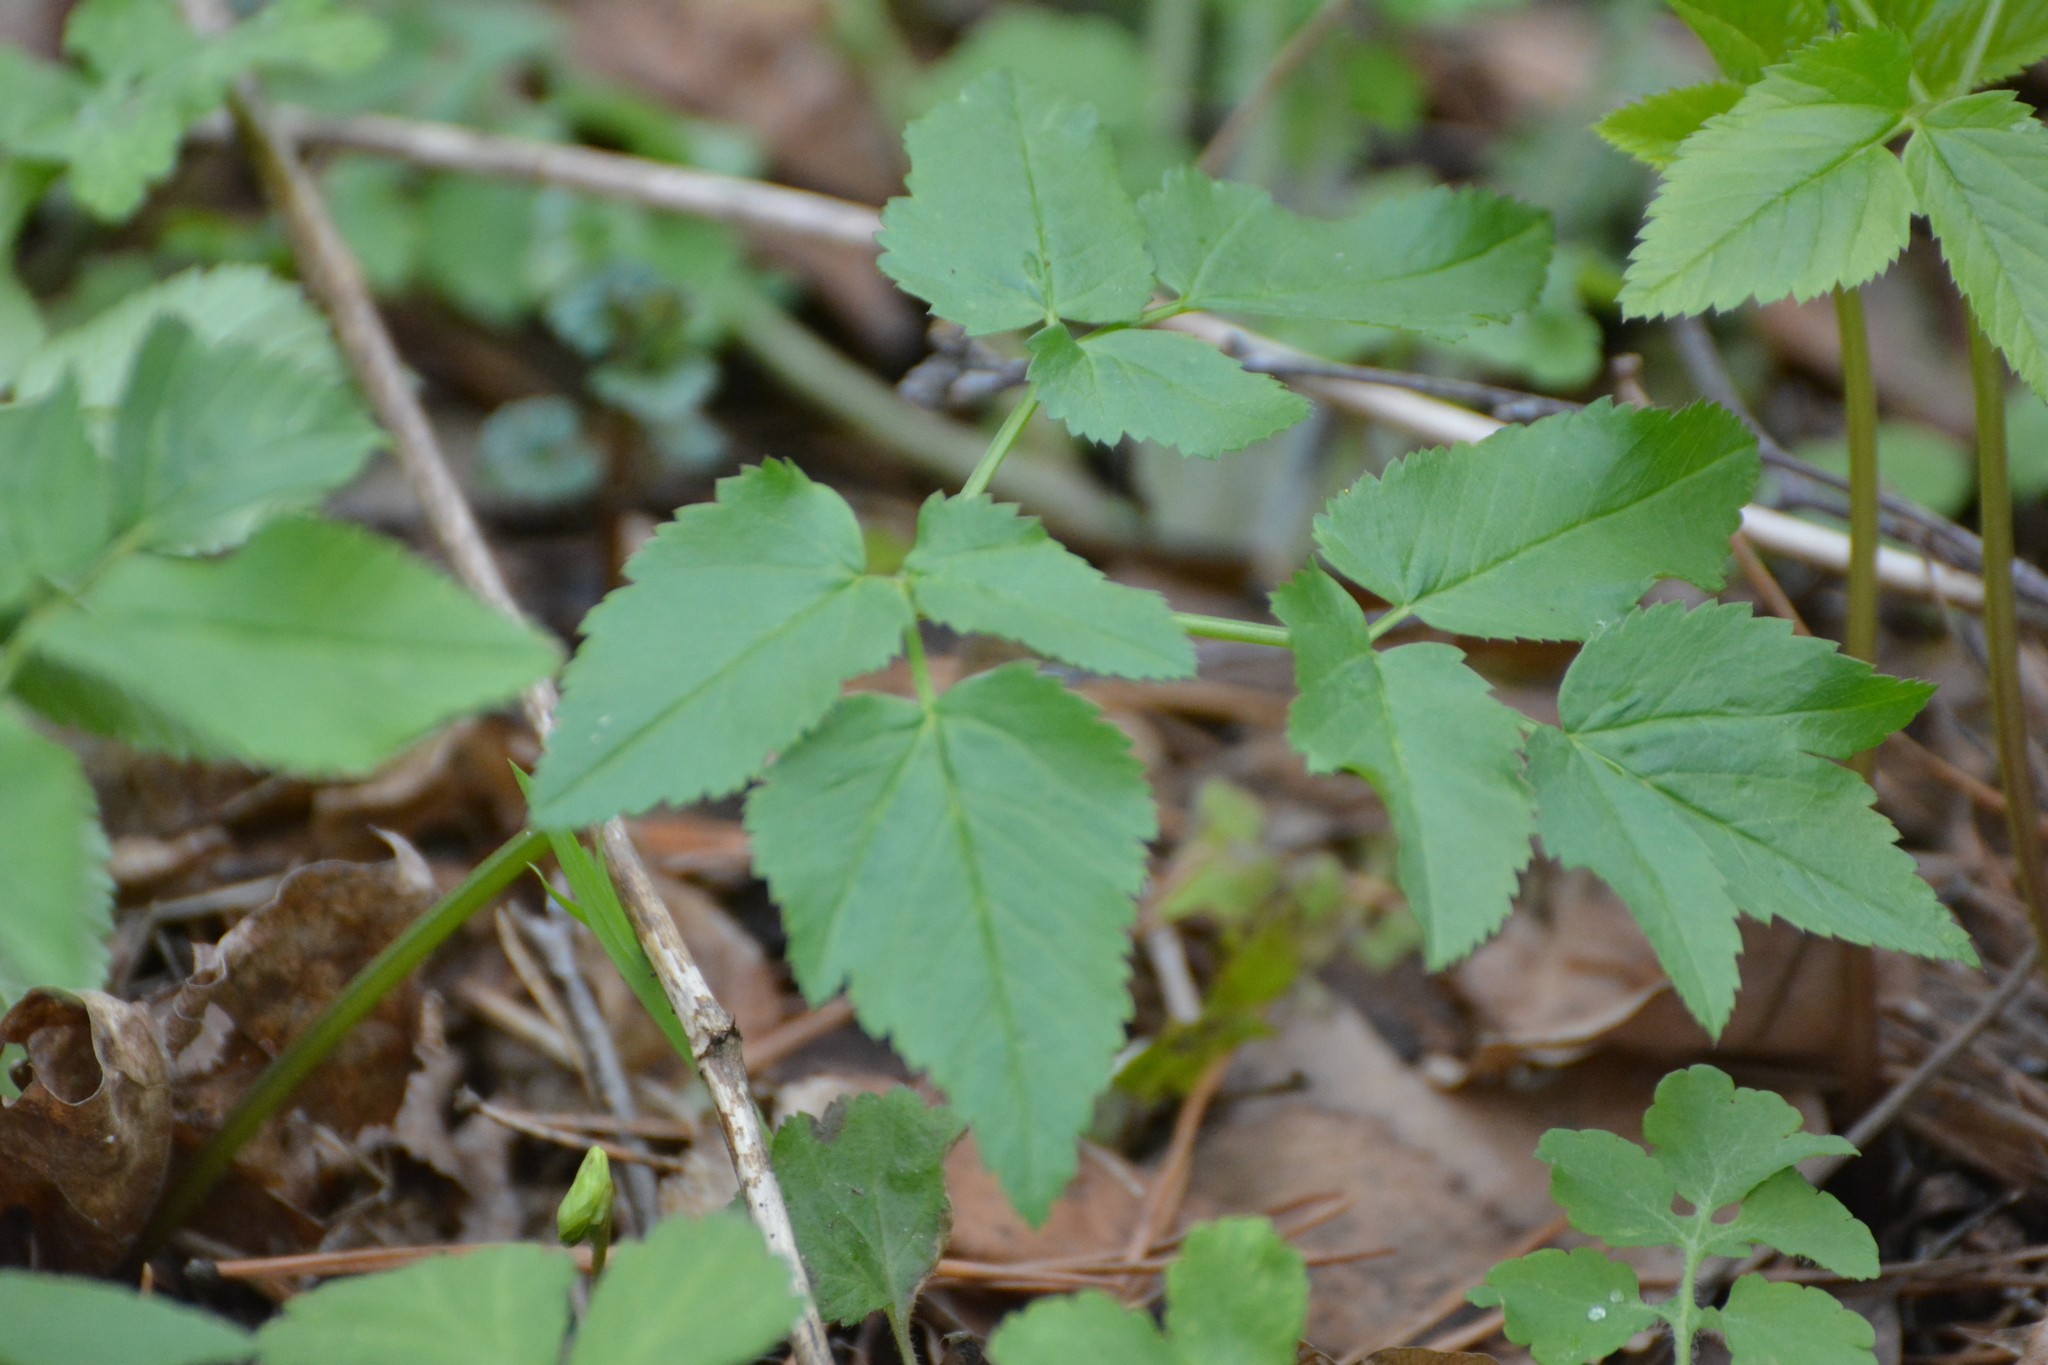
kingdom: Plantae
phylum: Tracheophyta
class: Magnoliopsida
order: Apiales
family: Apiaceae
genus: Aegopodium
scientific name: Aegopodium podagraria
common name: Ground-elder
